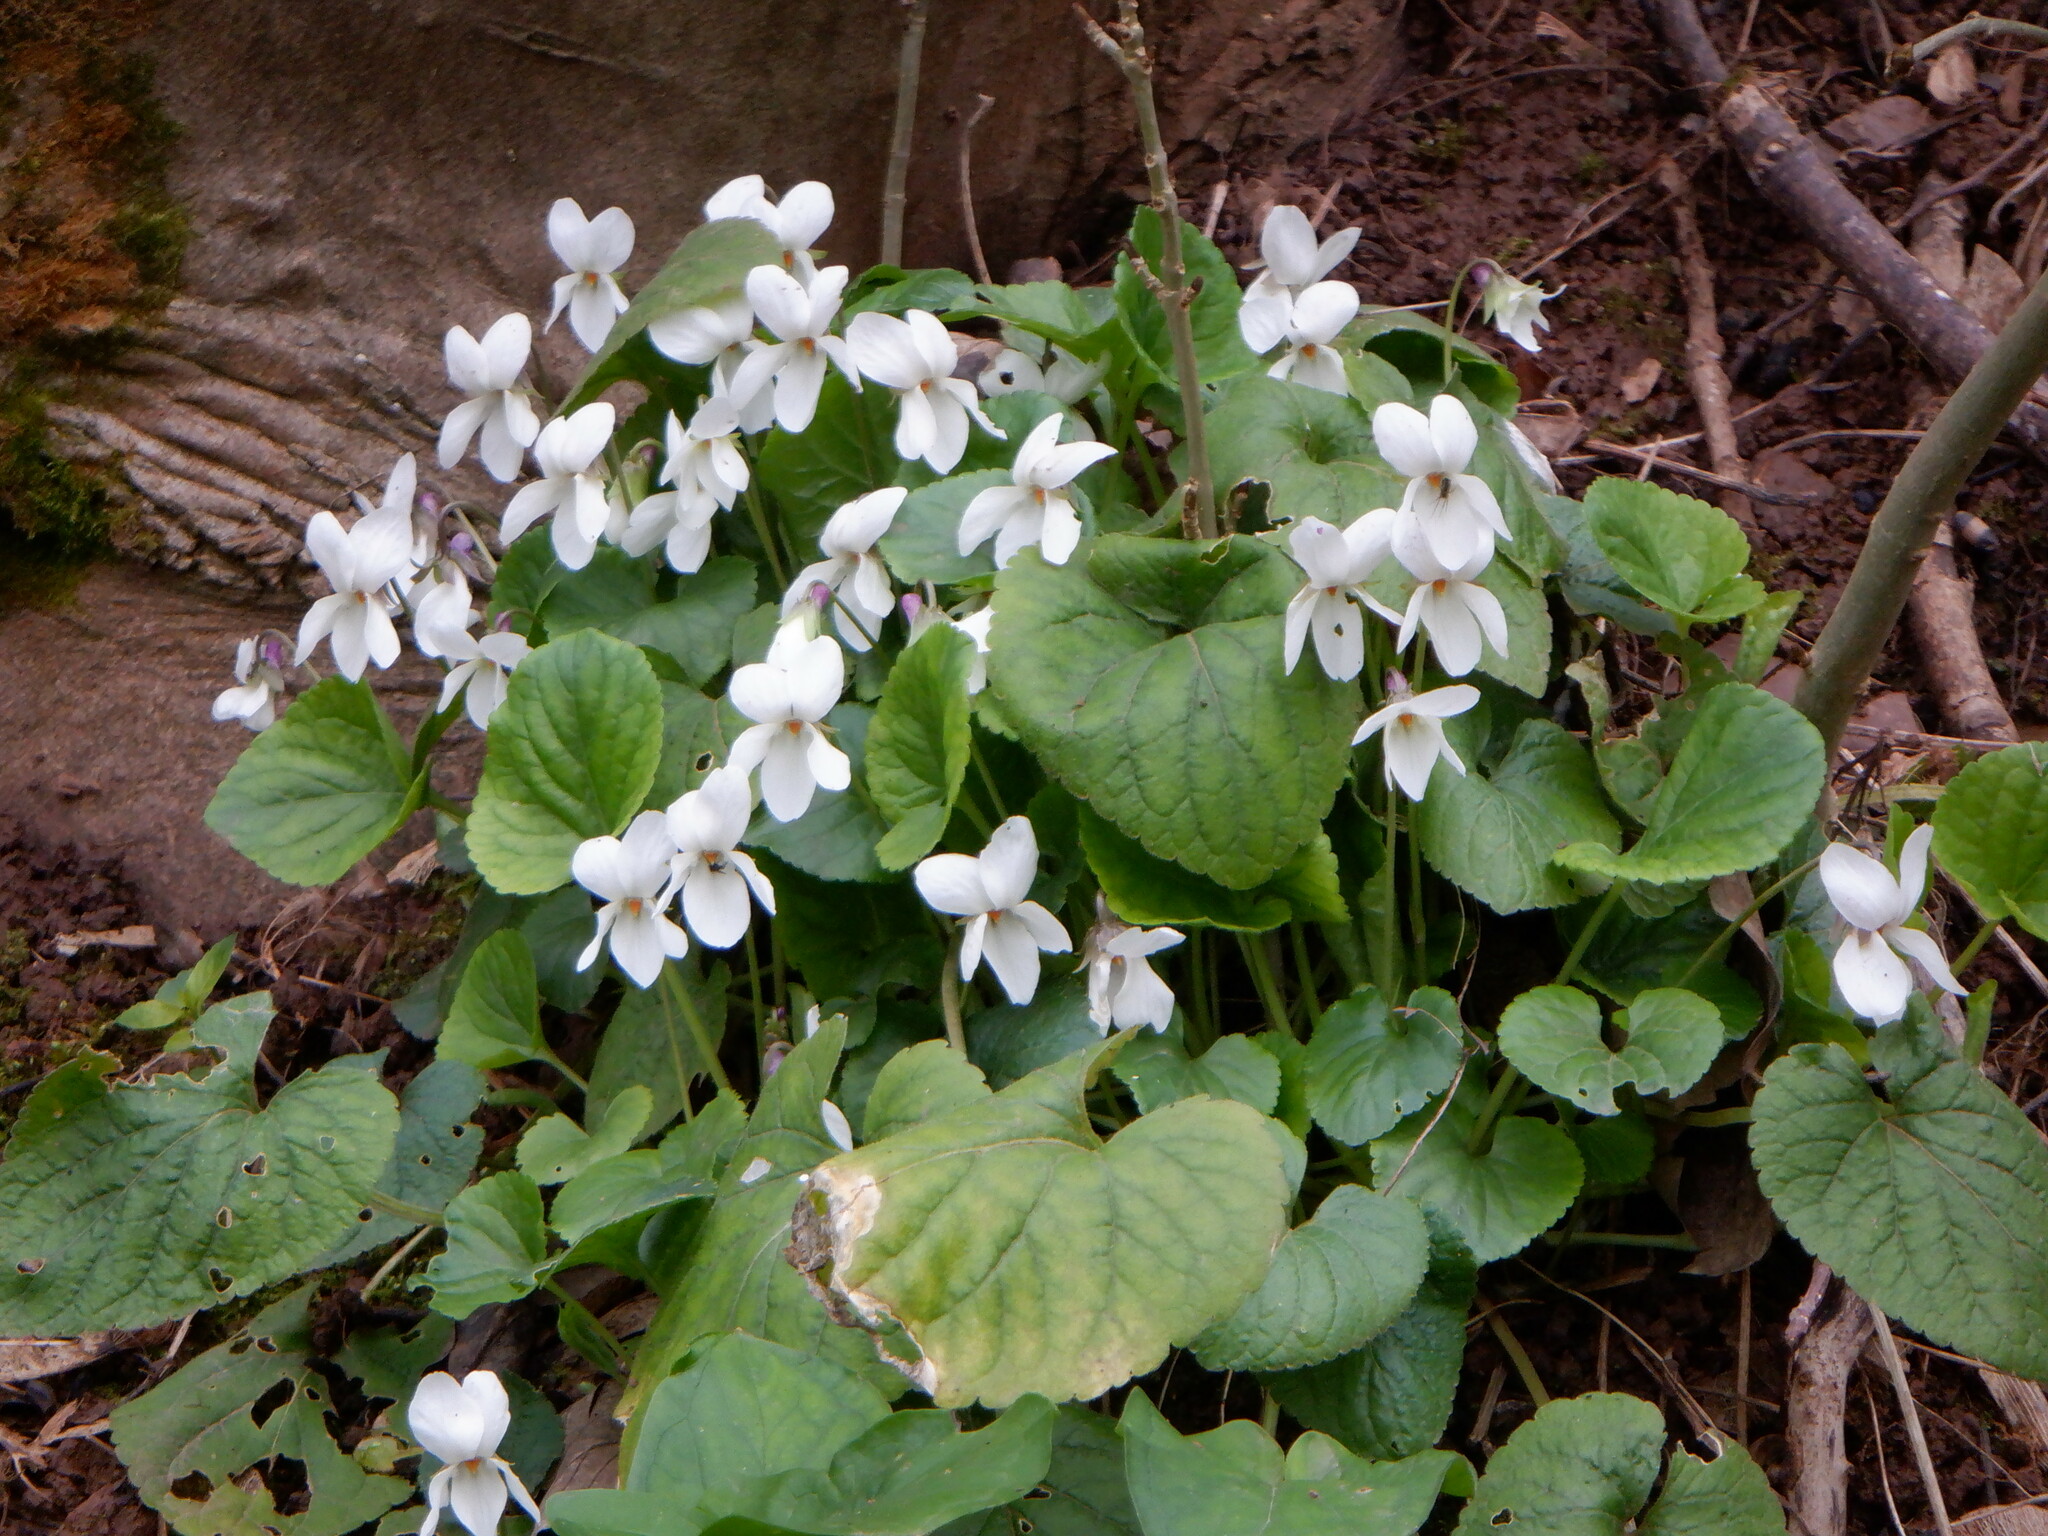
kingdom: Plantae
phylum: Tracheophyta
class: Magnoliopsida
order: Malpighiales
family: Violaceae
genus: Viola
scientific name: Viola odorata
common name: Sweet violet
